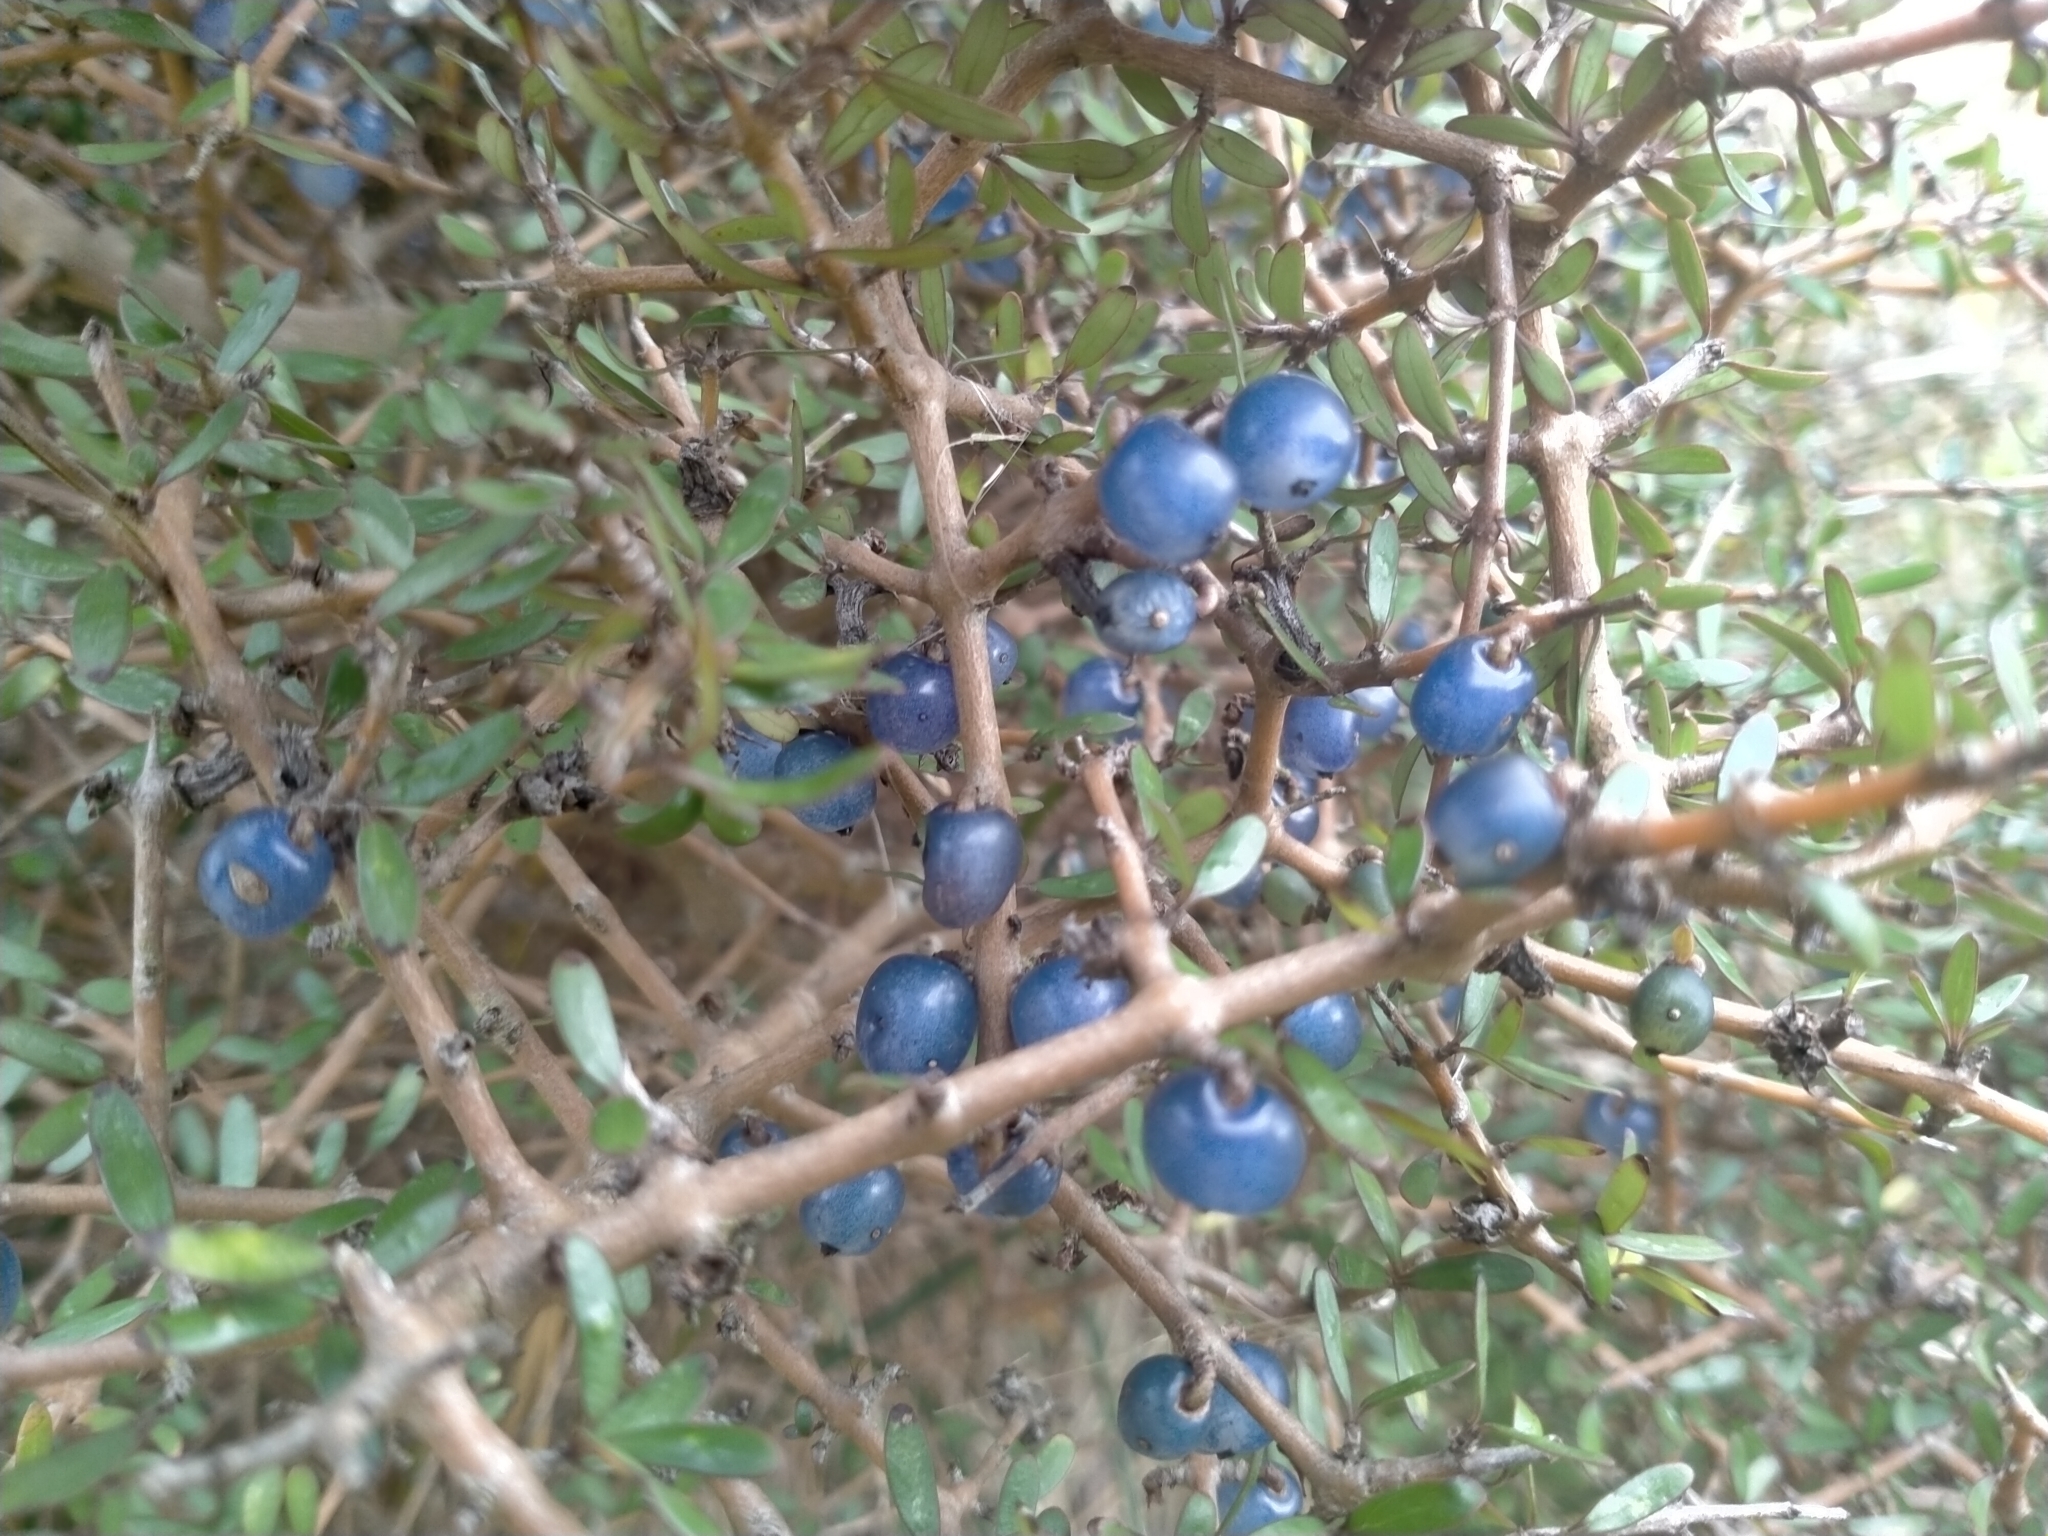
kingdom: Plantae
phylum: Tracheophyta
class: Magnoliopsida
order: Gentianales
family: Rubiaceae
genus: Coprosma
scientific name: Coprosma propinqua
